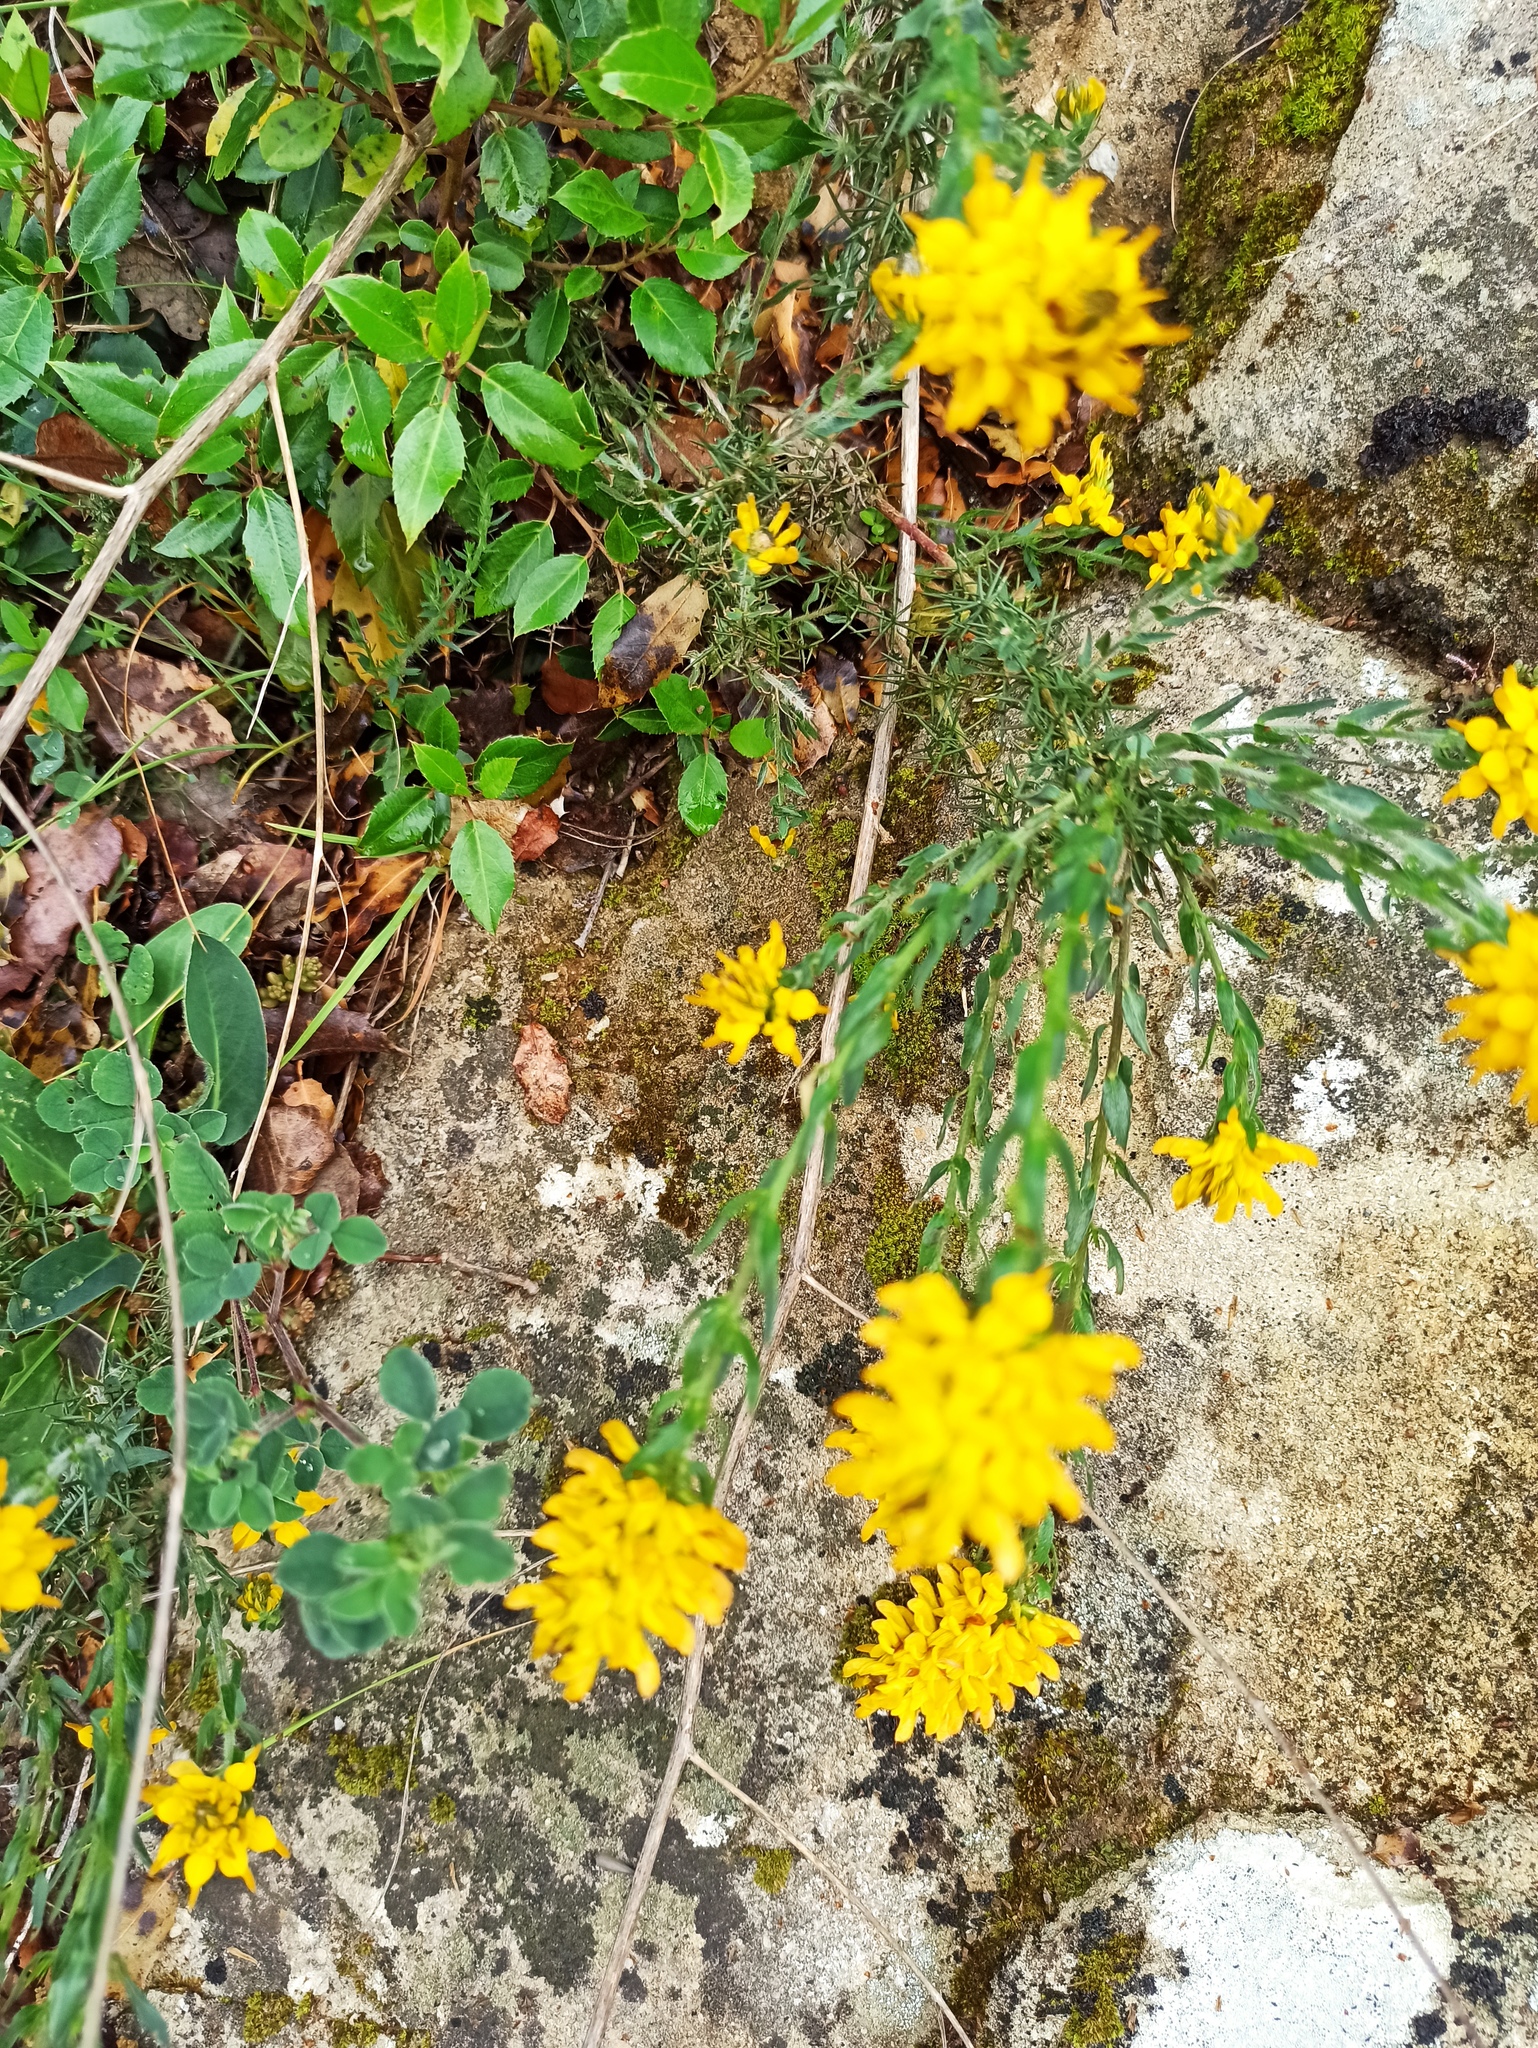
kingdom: Plantae
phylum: Tracheophyta
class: Magnoliopsida
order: Fabales
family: Fabaceae
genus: Genista
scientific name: Genista tournefortii
